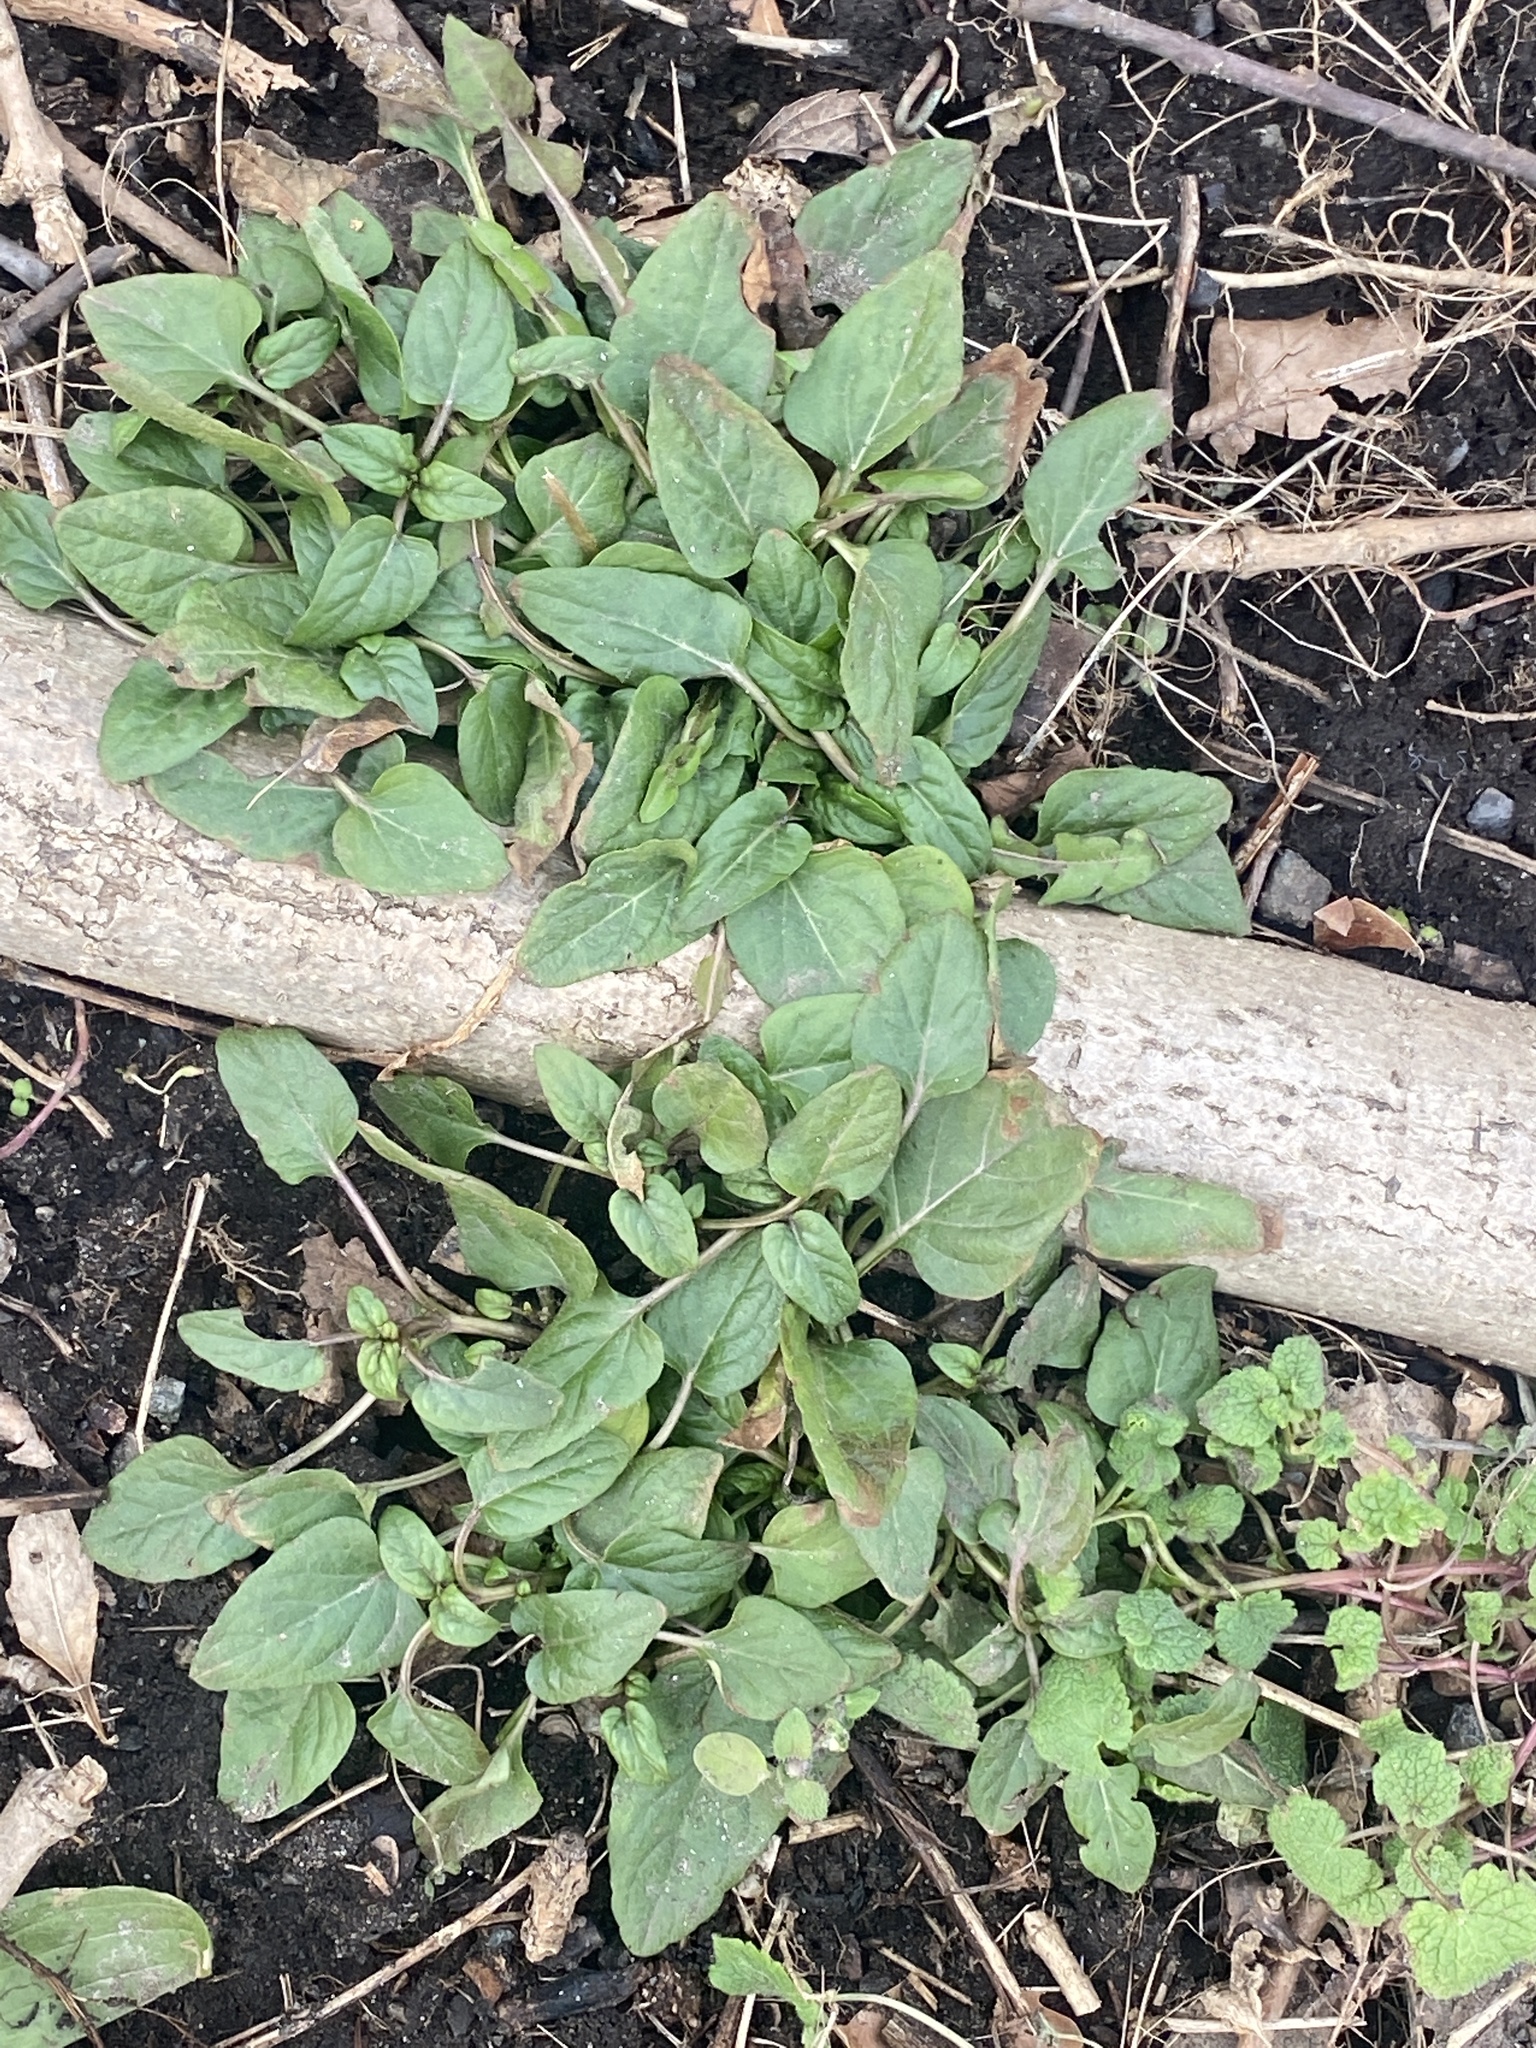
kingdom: Plantae
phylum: Tracheophyta
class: Magnoliopsida
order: Lamiales
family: Lamiaceae
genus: Prunella
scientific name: Prunella vulgaris
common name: Heal-all
